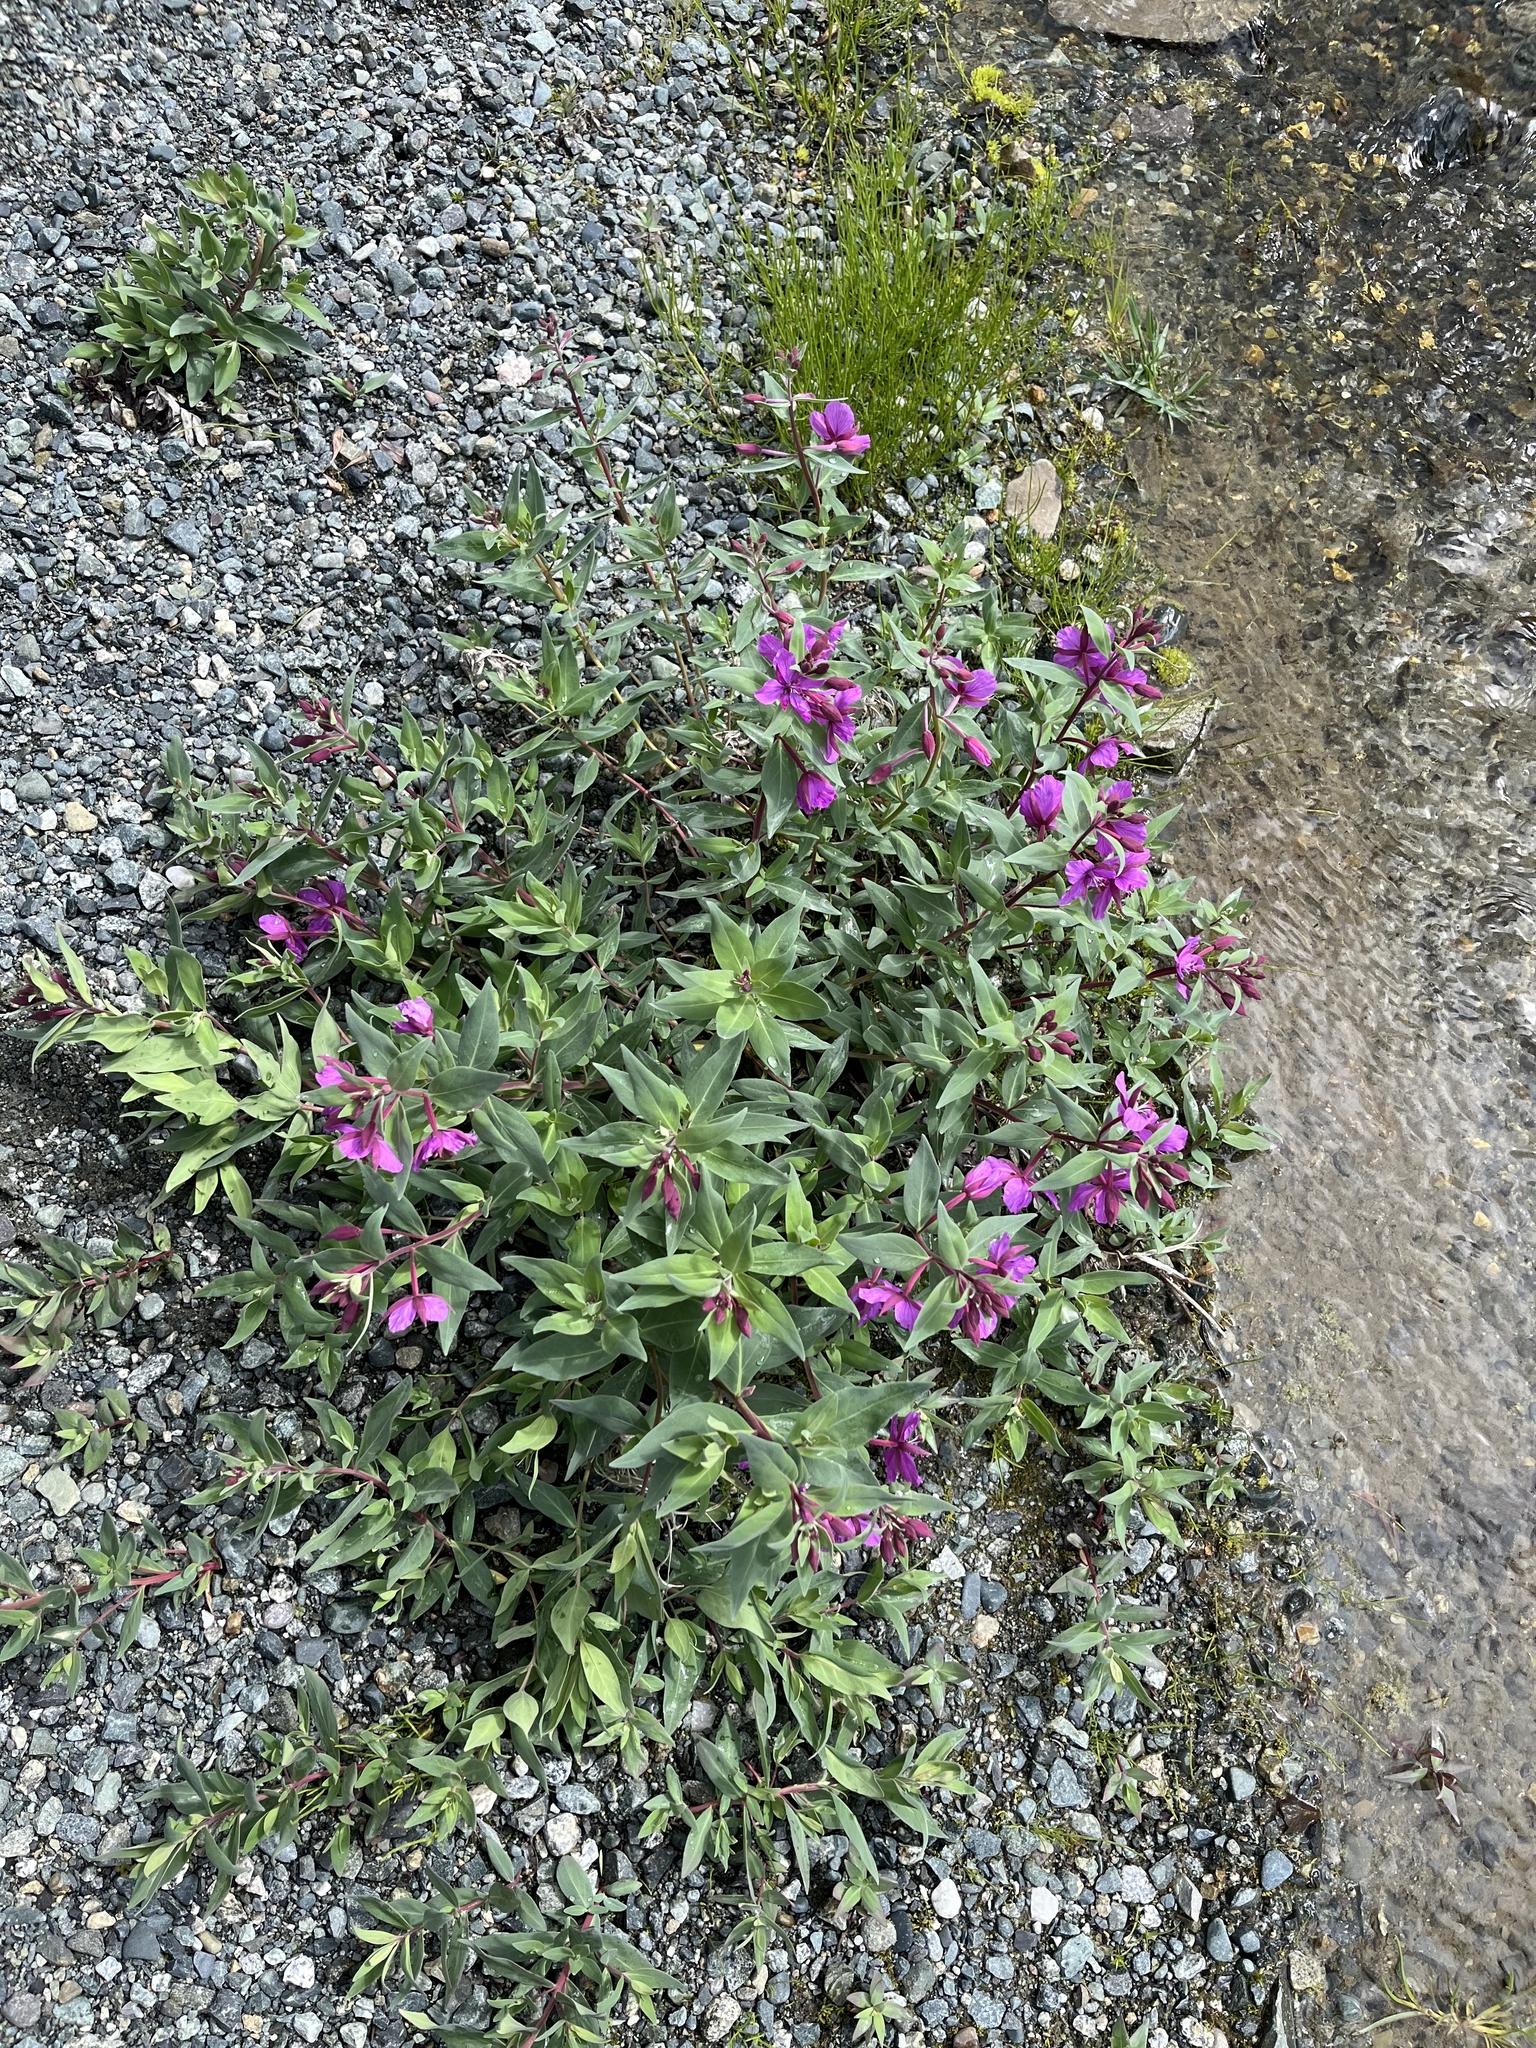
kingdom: Plantae
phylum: Tracheophyta
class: Magnoliopsida
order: Myrtales
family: Onagraceae
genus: Chamaenerion
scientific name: Chamaenerion latifolium
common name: Dwarf fireweed
